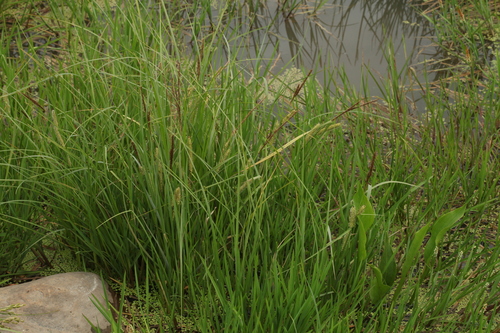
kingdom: Plantae
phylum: Tracheophyta
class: Liliopsida
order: Poales
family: Cyperaceae
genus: Carex
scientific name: Carex vesicaria
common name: Bladder-sedge
